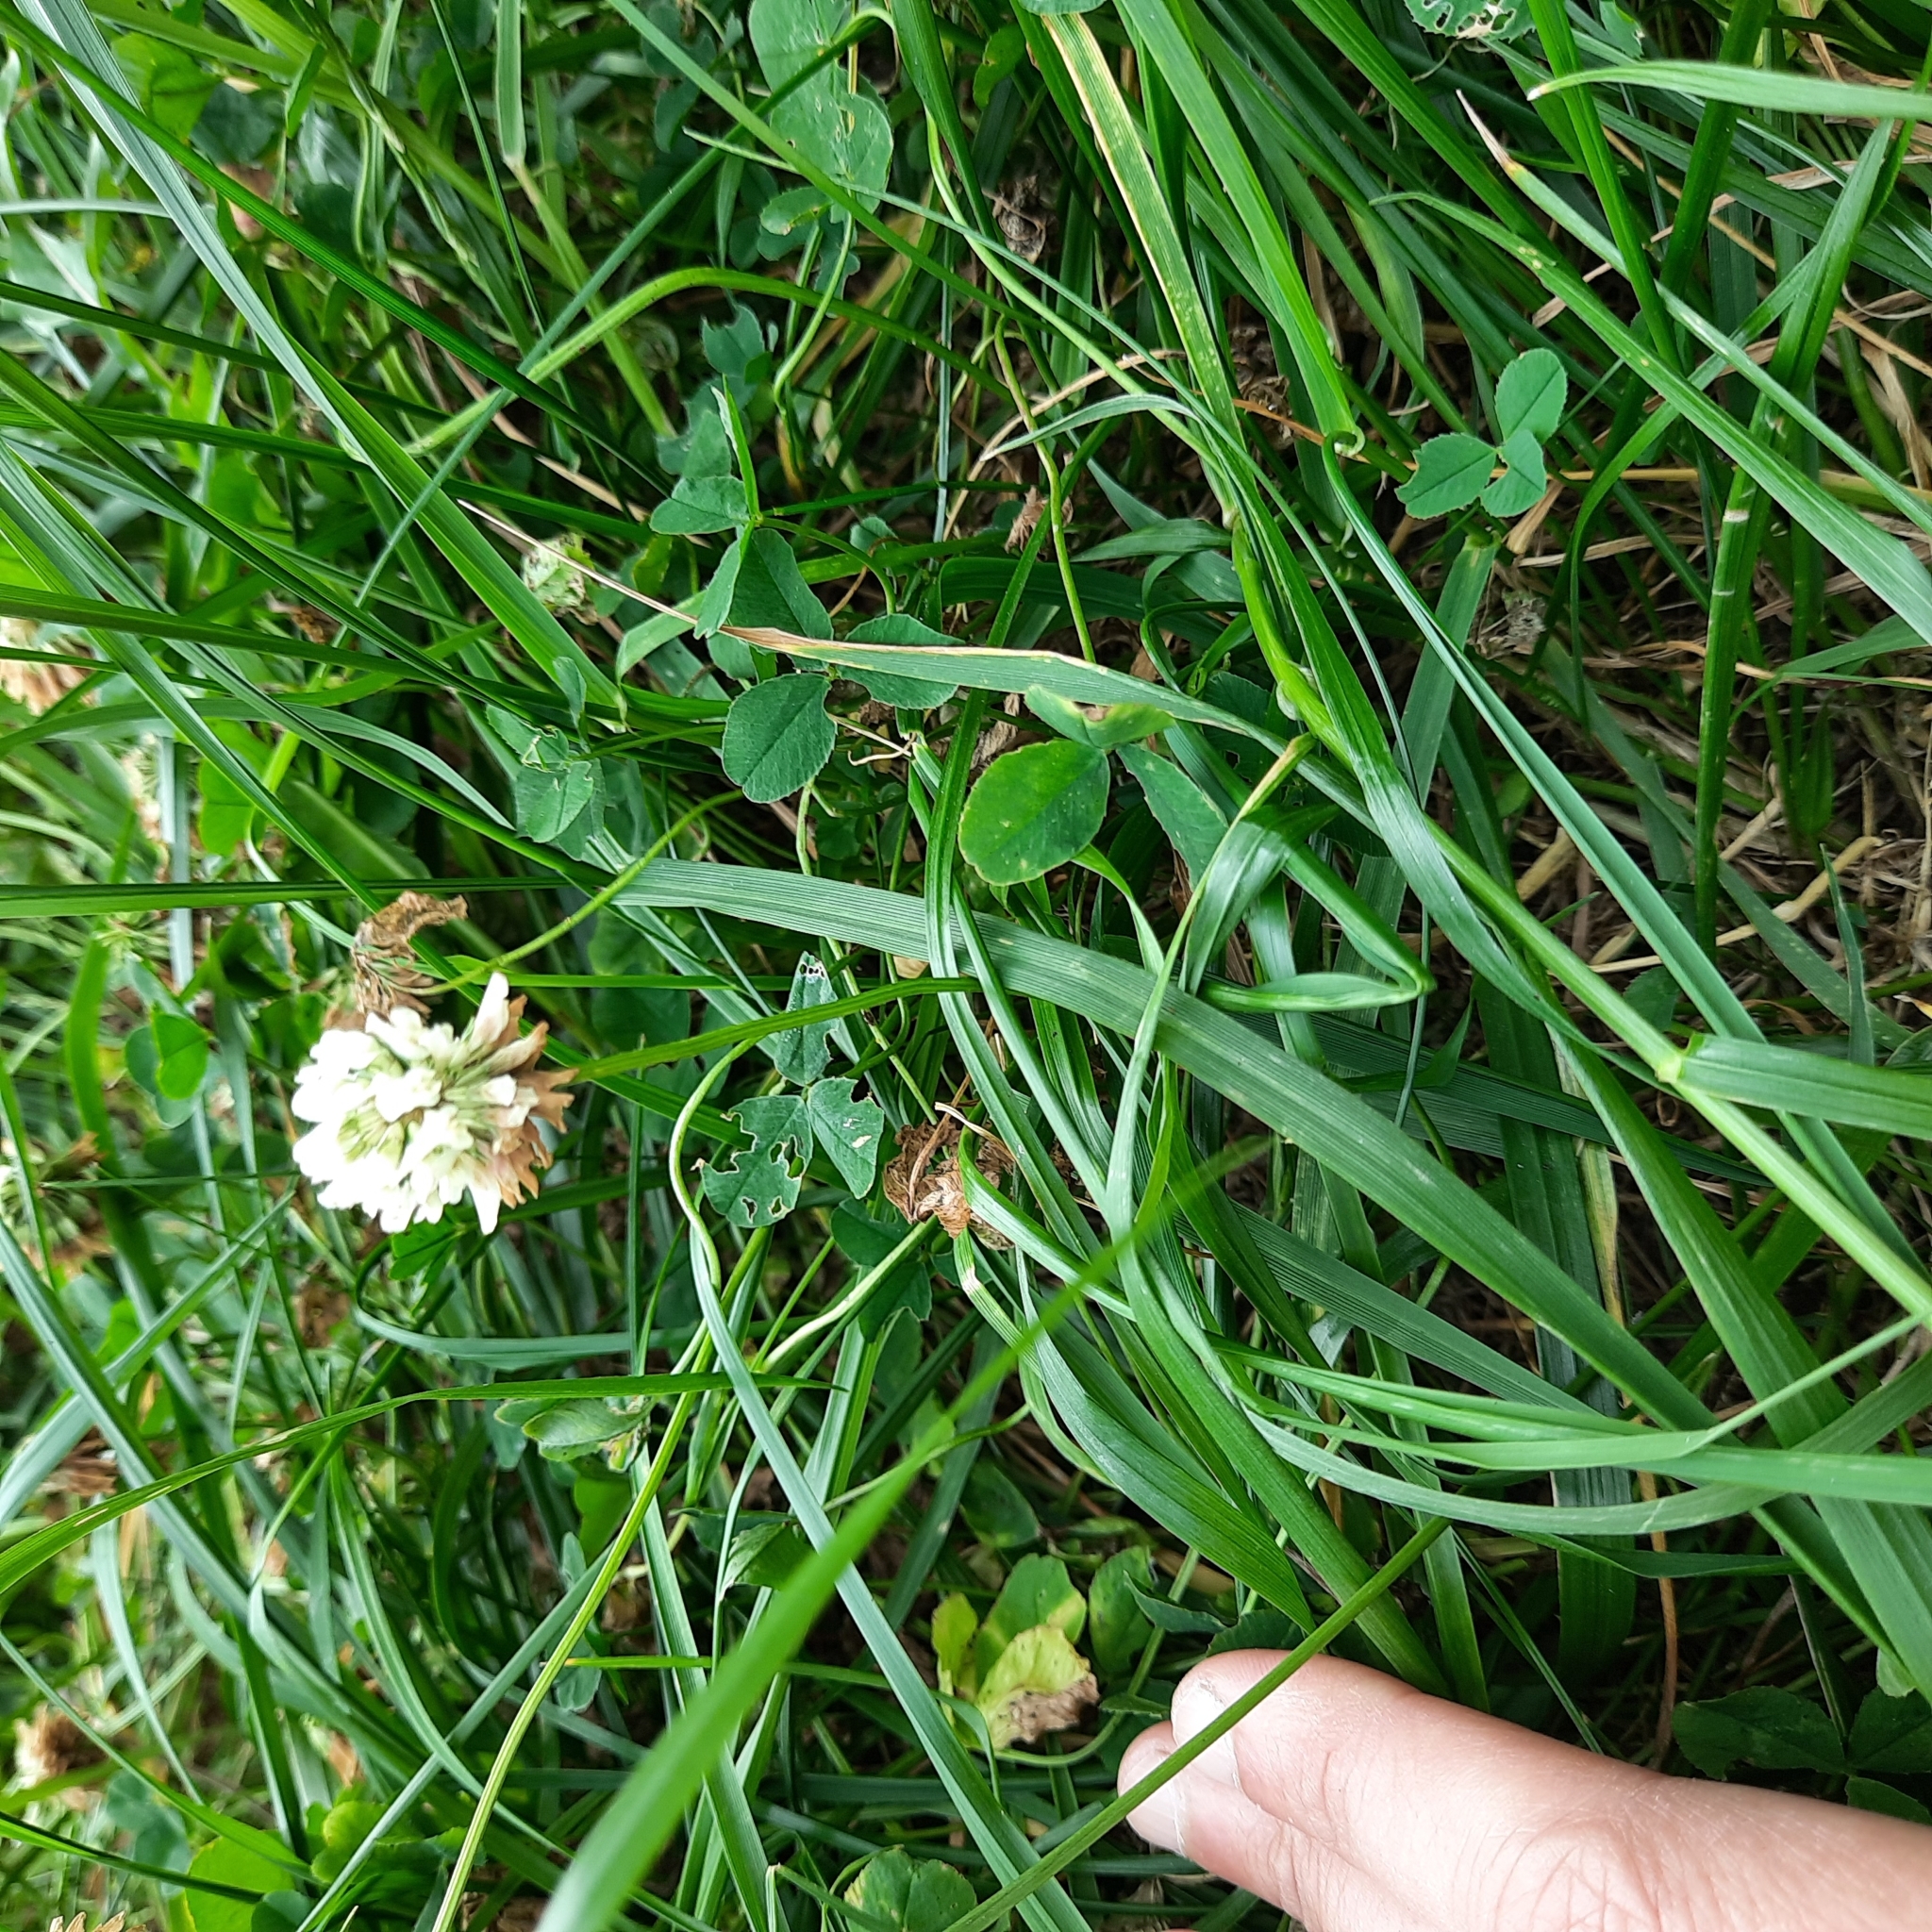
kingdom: Plantae
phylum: Tracheophyta
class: Magnoliopsida
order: Fabales
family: Fabaceae
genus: Trifolium
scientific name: Trifolium repens
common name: White clover
